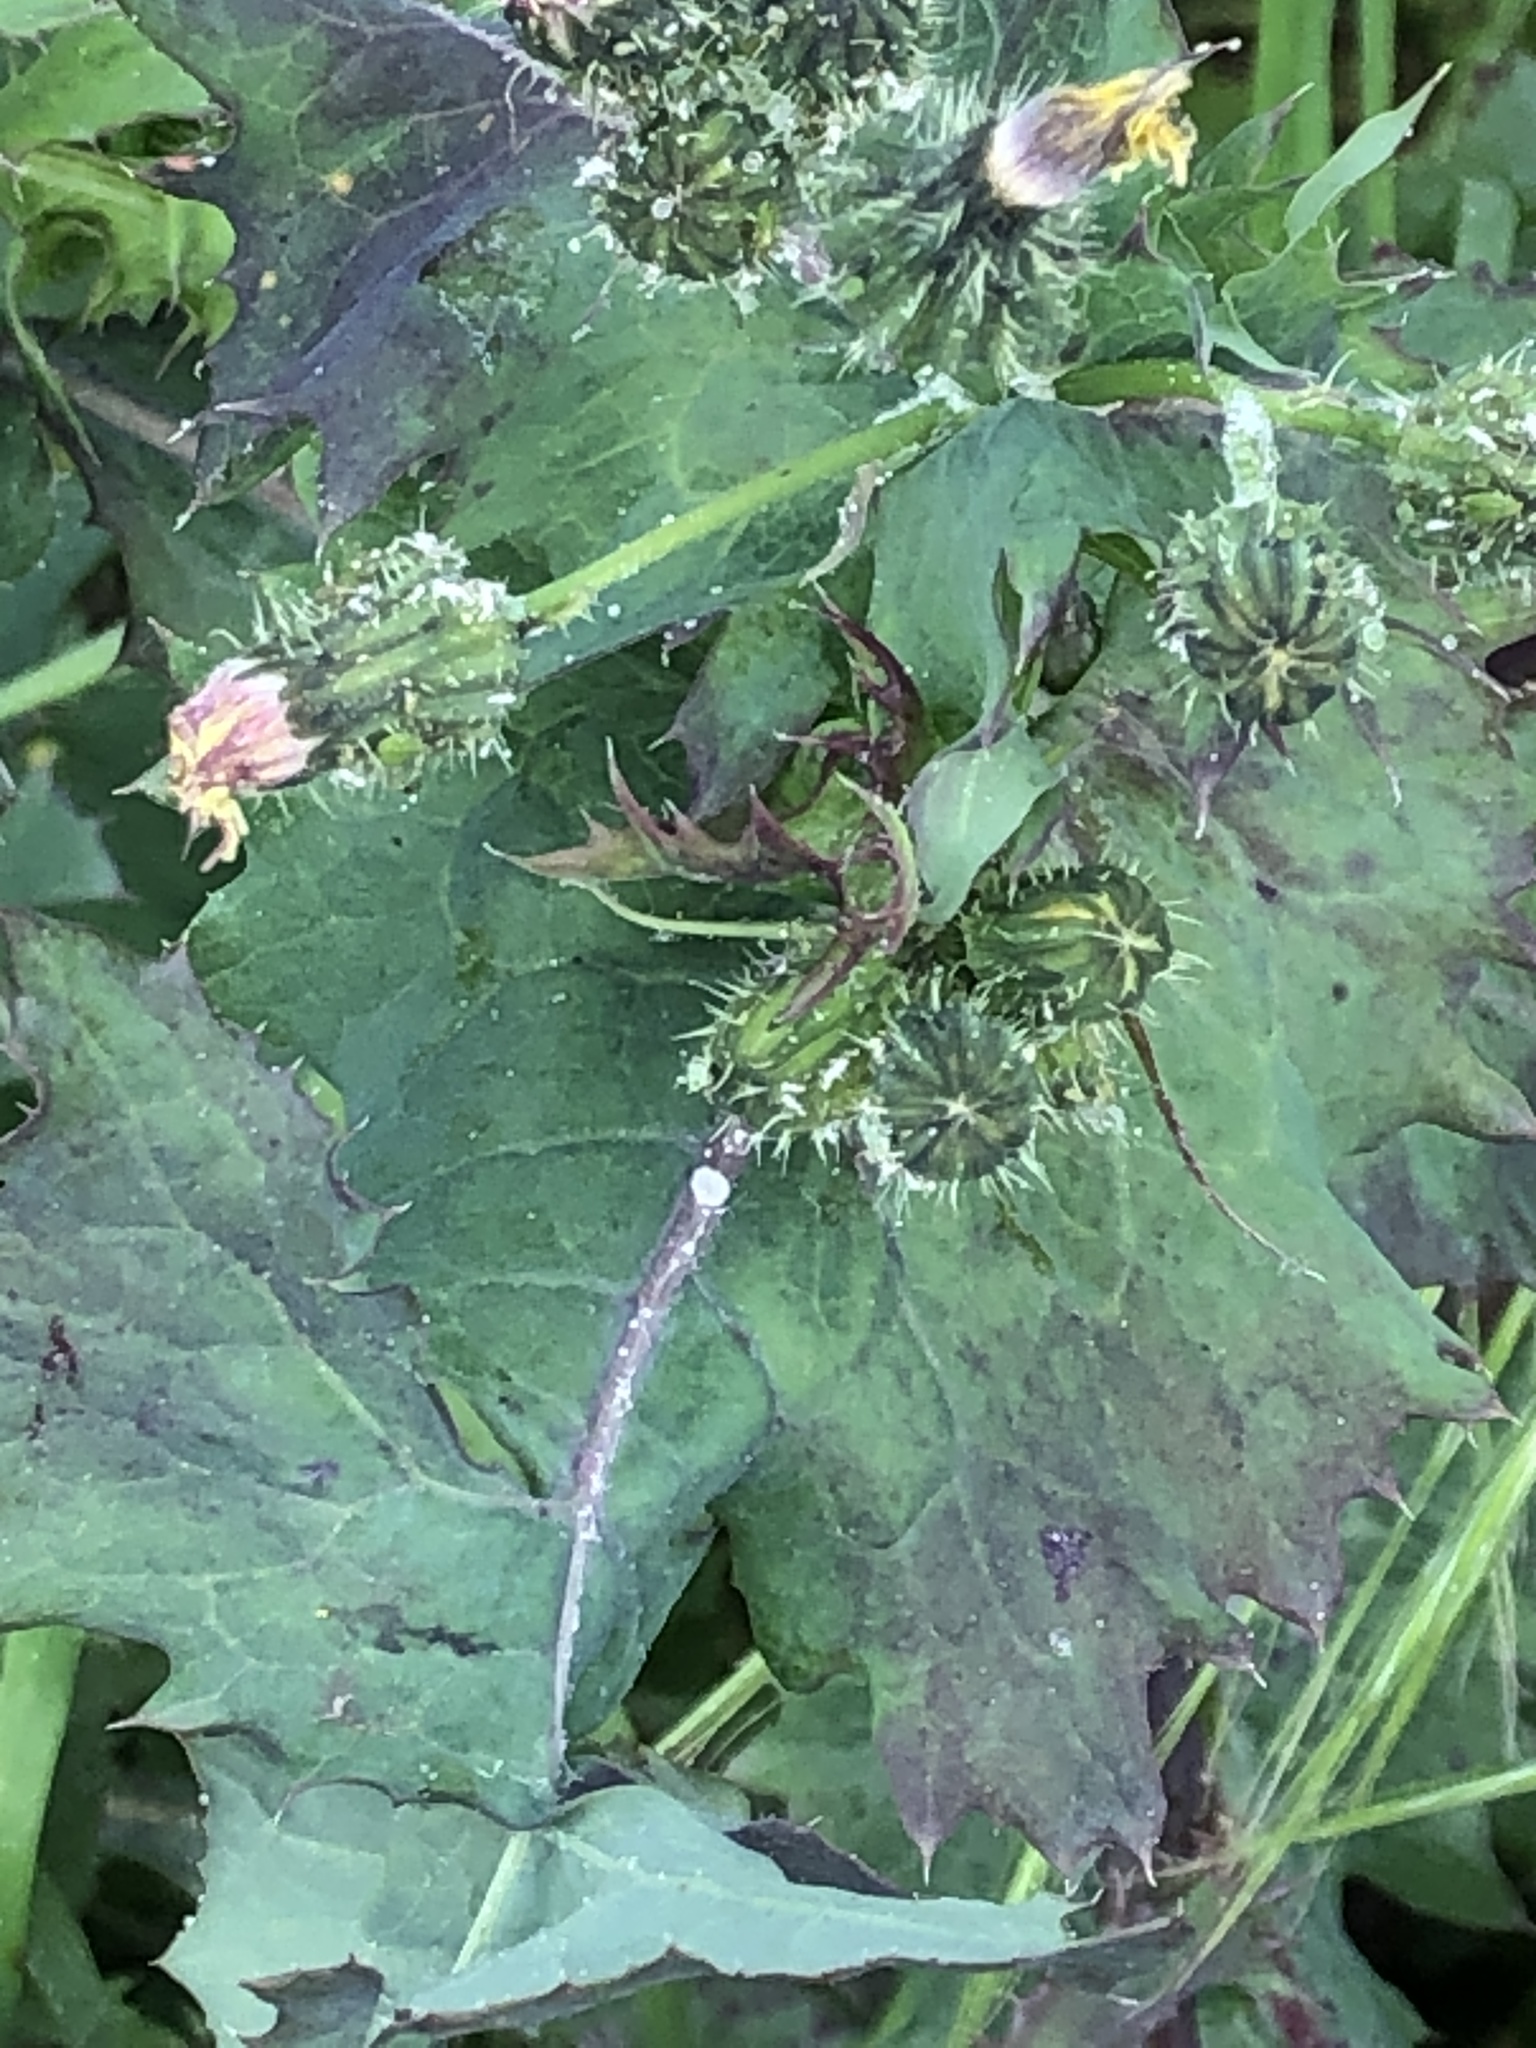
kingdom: Plantae
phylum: Tracheophyta
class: Magnoliopsida
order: Asterales
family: Asteraceae
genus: Sonchus
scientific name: Sonchus oleraceus
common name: Common sowthistle
